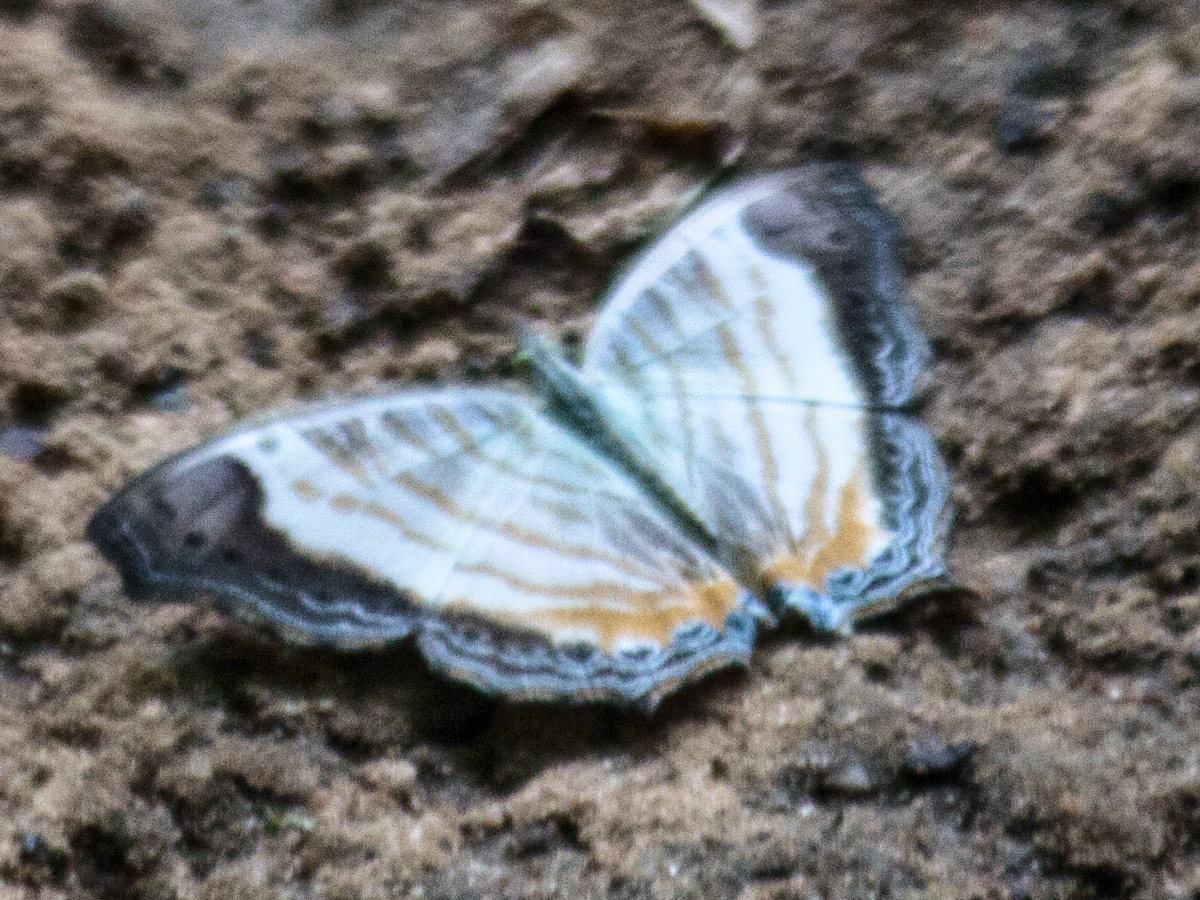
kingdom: Animalia
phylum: Arthropoda
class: Insecta
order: Lepidoptera
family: Nymphalidae
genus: Cyrestis
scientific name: Cyrestis themire
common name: Little mapwing
